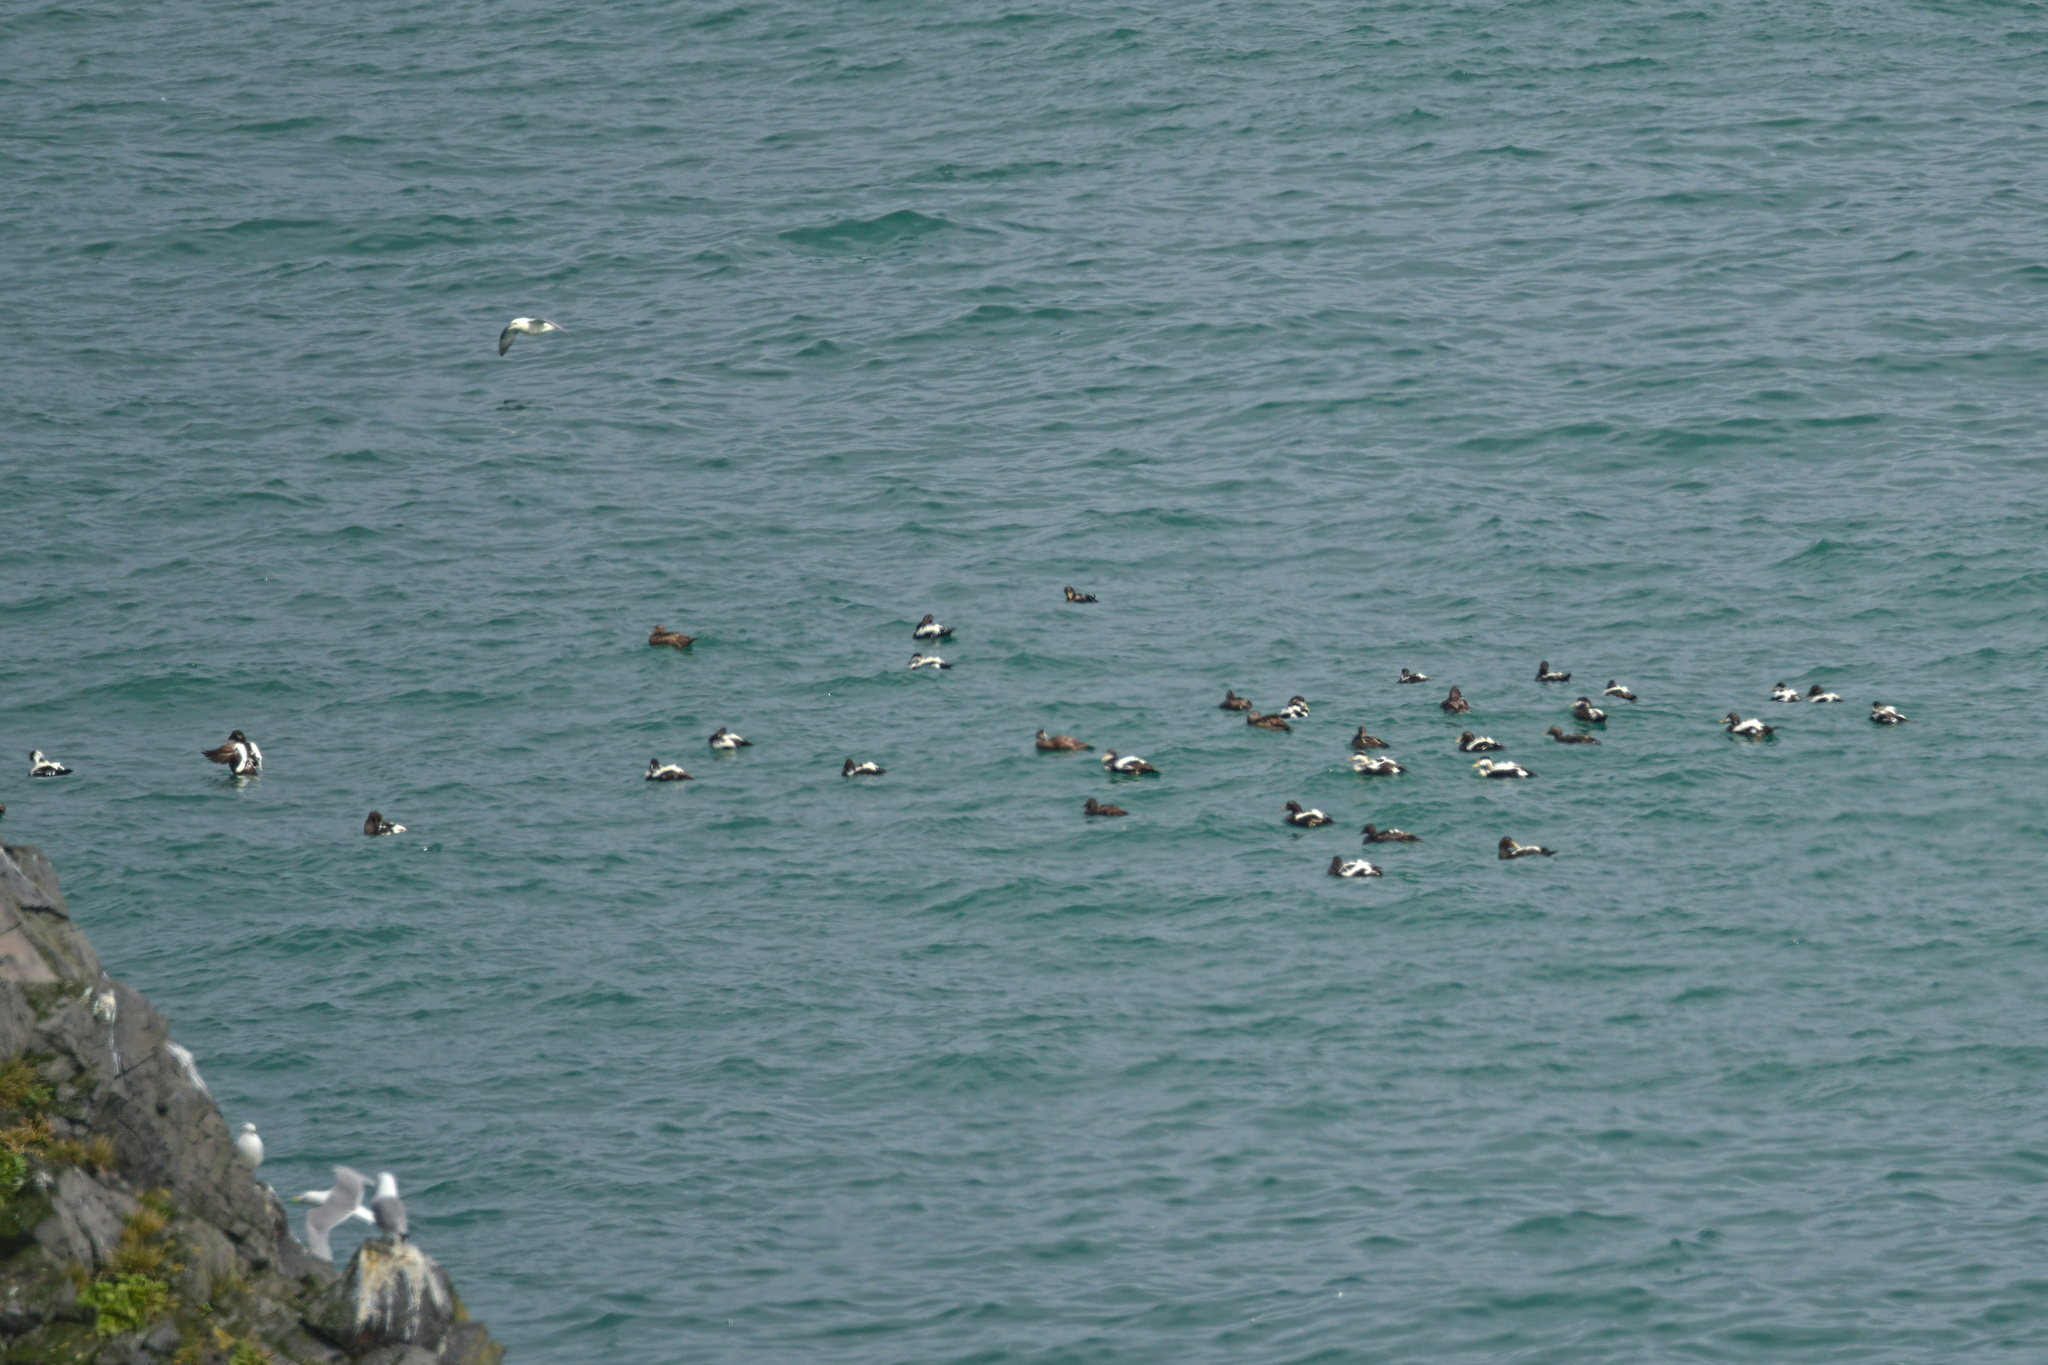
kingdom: Animalia
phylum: Chordata
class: Aves
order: Anseriformes
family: Anatidae
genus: Somateria
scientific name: Somateria mollissima
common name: Common eider
